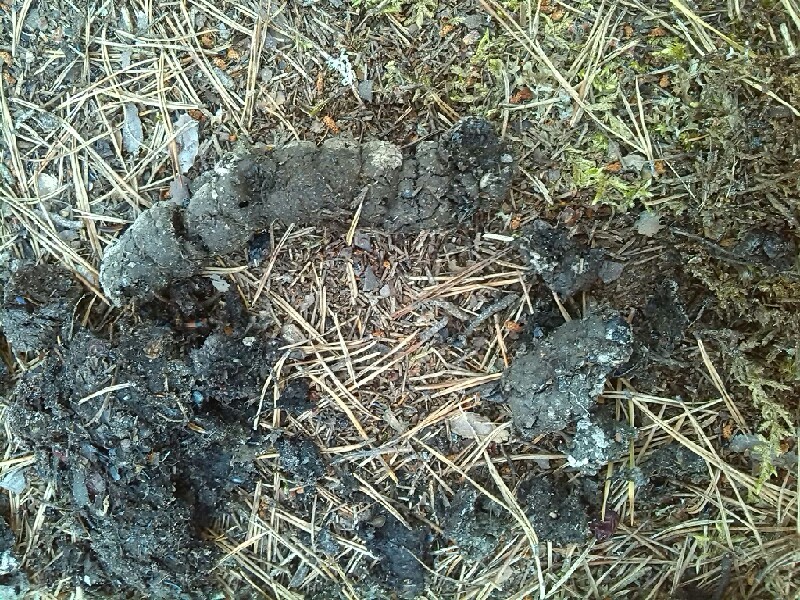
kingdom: Animalia
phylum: Chordata
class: Mammalia
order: Carnivora
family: Canidae
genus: Canis
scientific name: Canis lupus
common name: Gray wolf
